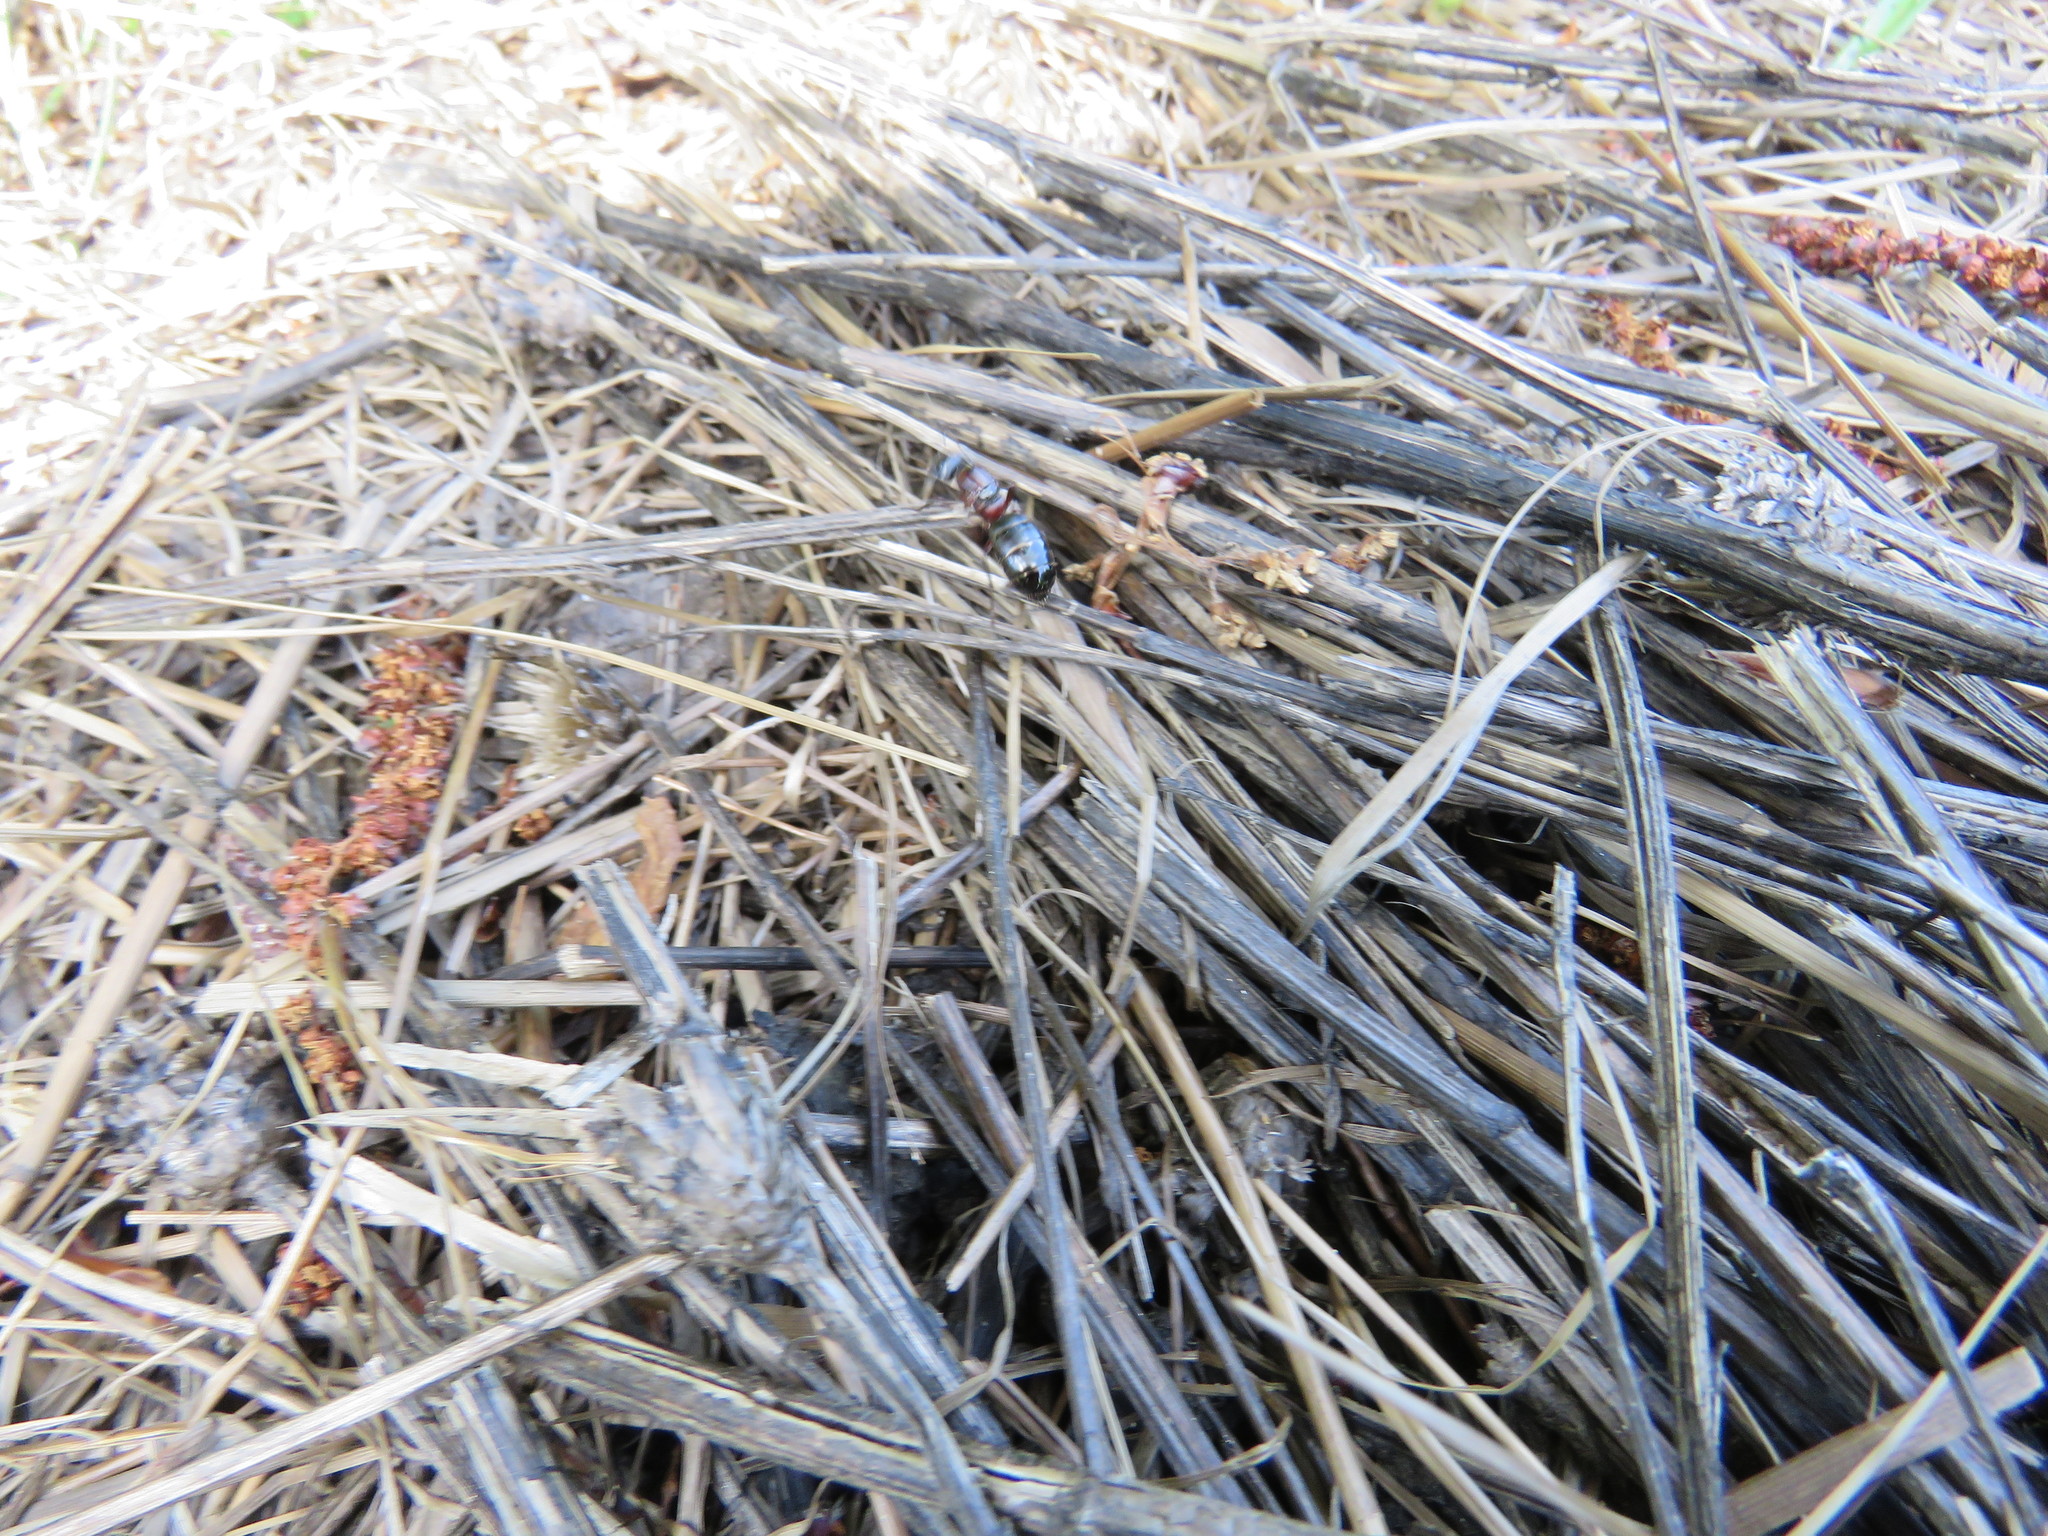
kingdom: Animalia
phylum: Arthropoda
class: Insecta
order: Hymenoptera
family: Formicidae
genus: Camponotus
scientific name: Camponotus novaeboracensis
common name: New york carpenter ant
